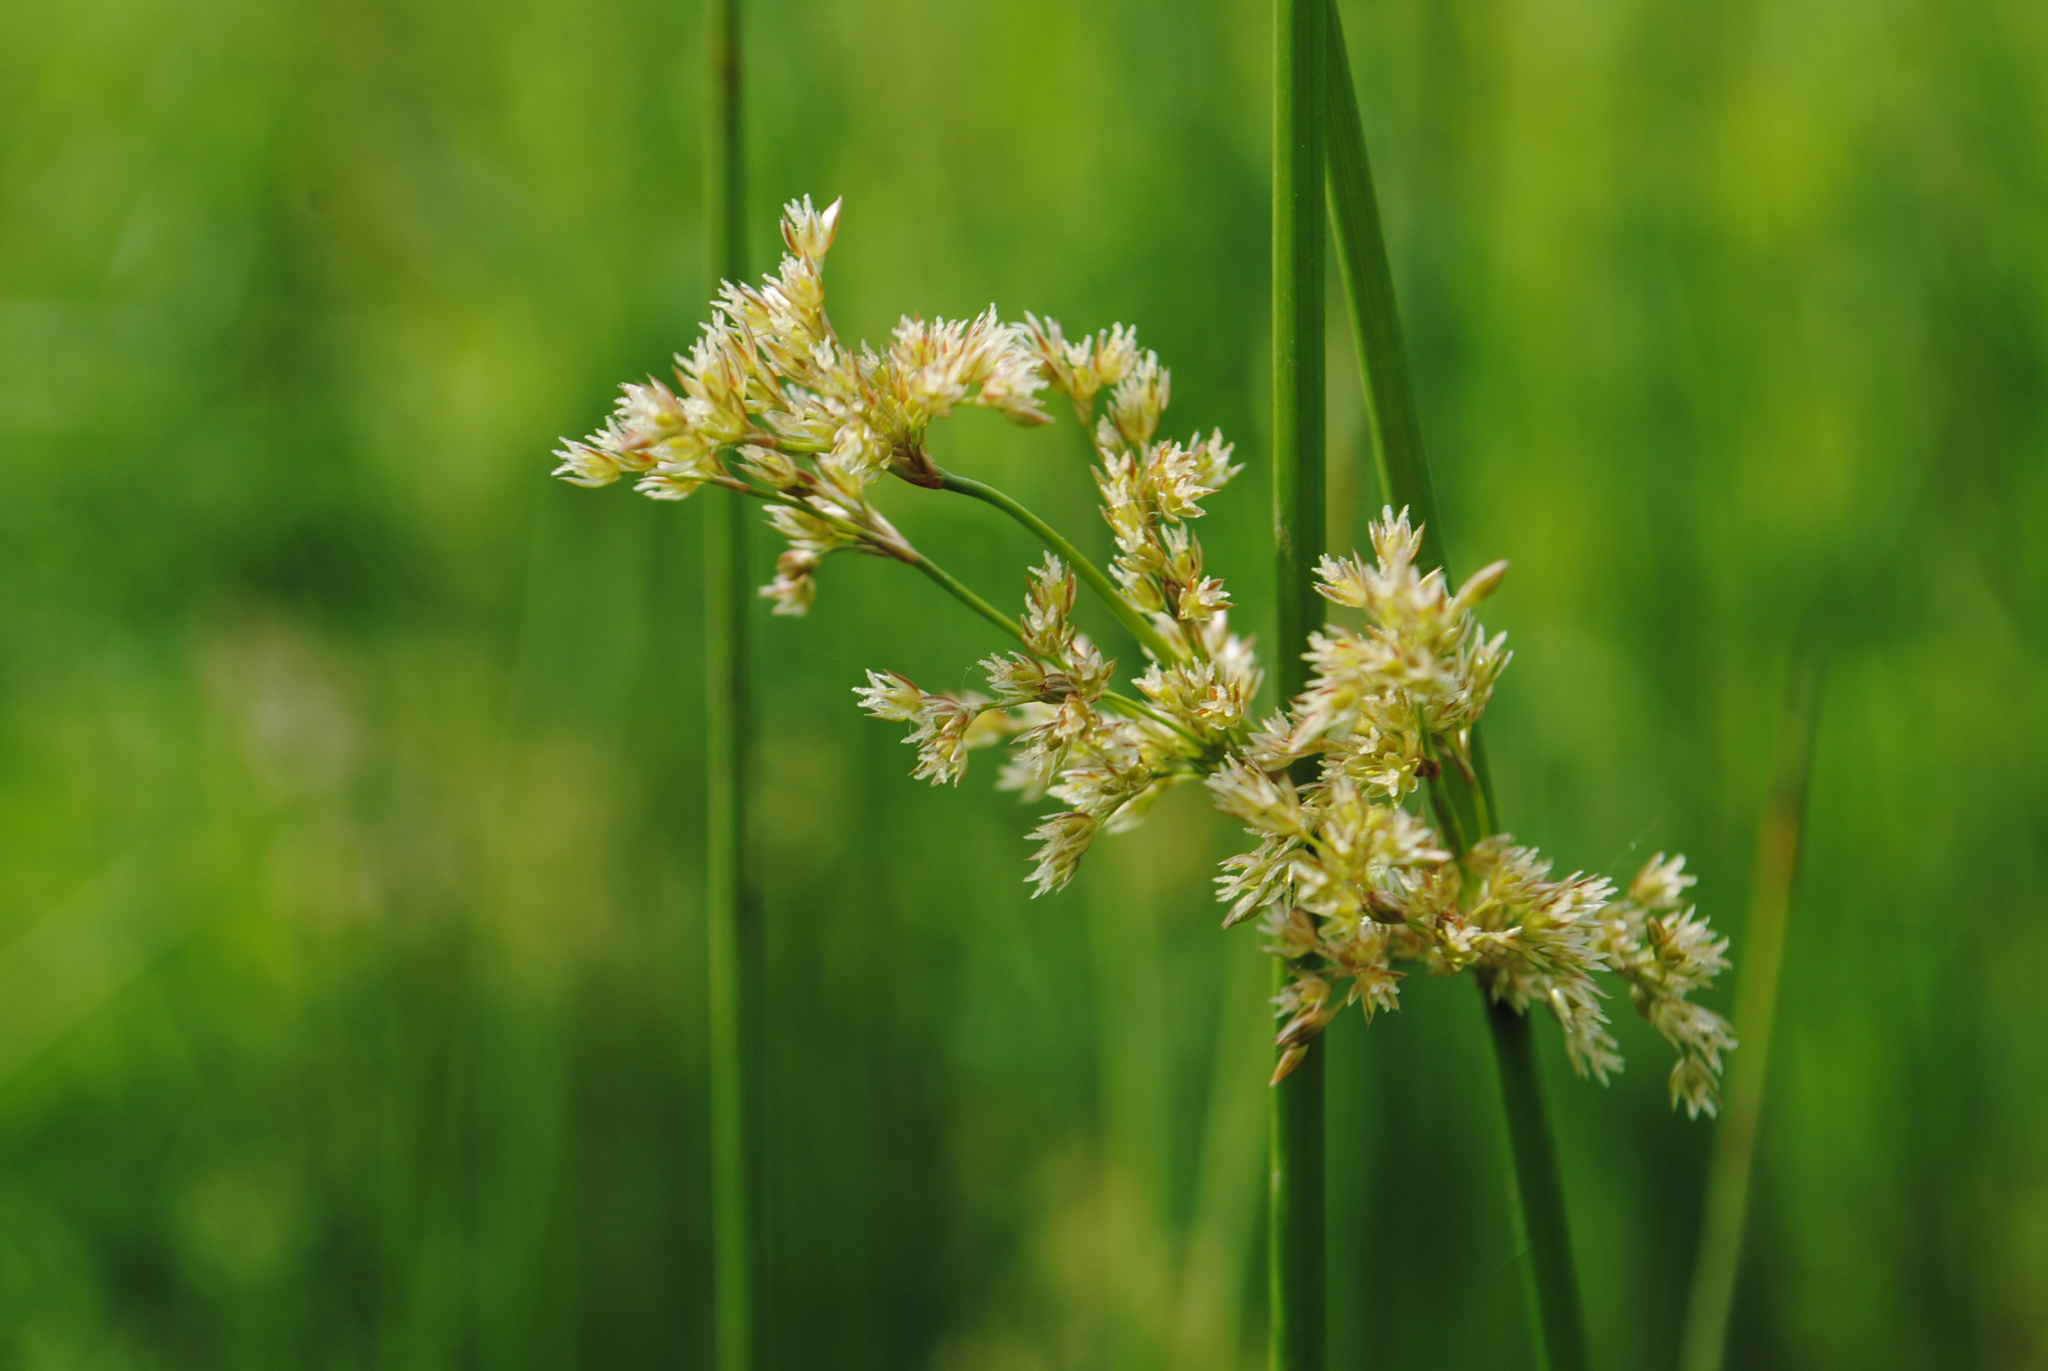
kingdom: Plantae
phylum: Tracheophyta
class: Liliopsida
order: Poales
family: Juncaceae
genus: Juncus
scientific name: Juncus effusus
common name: Soft rush
